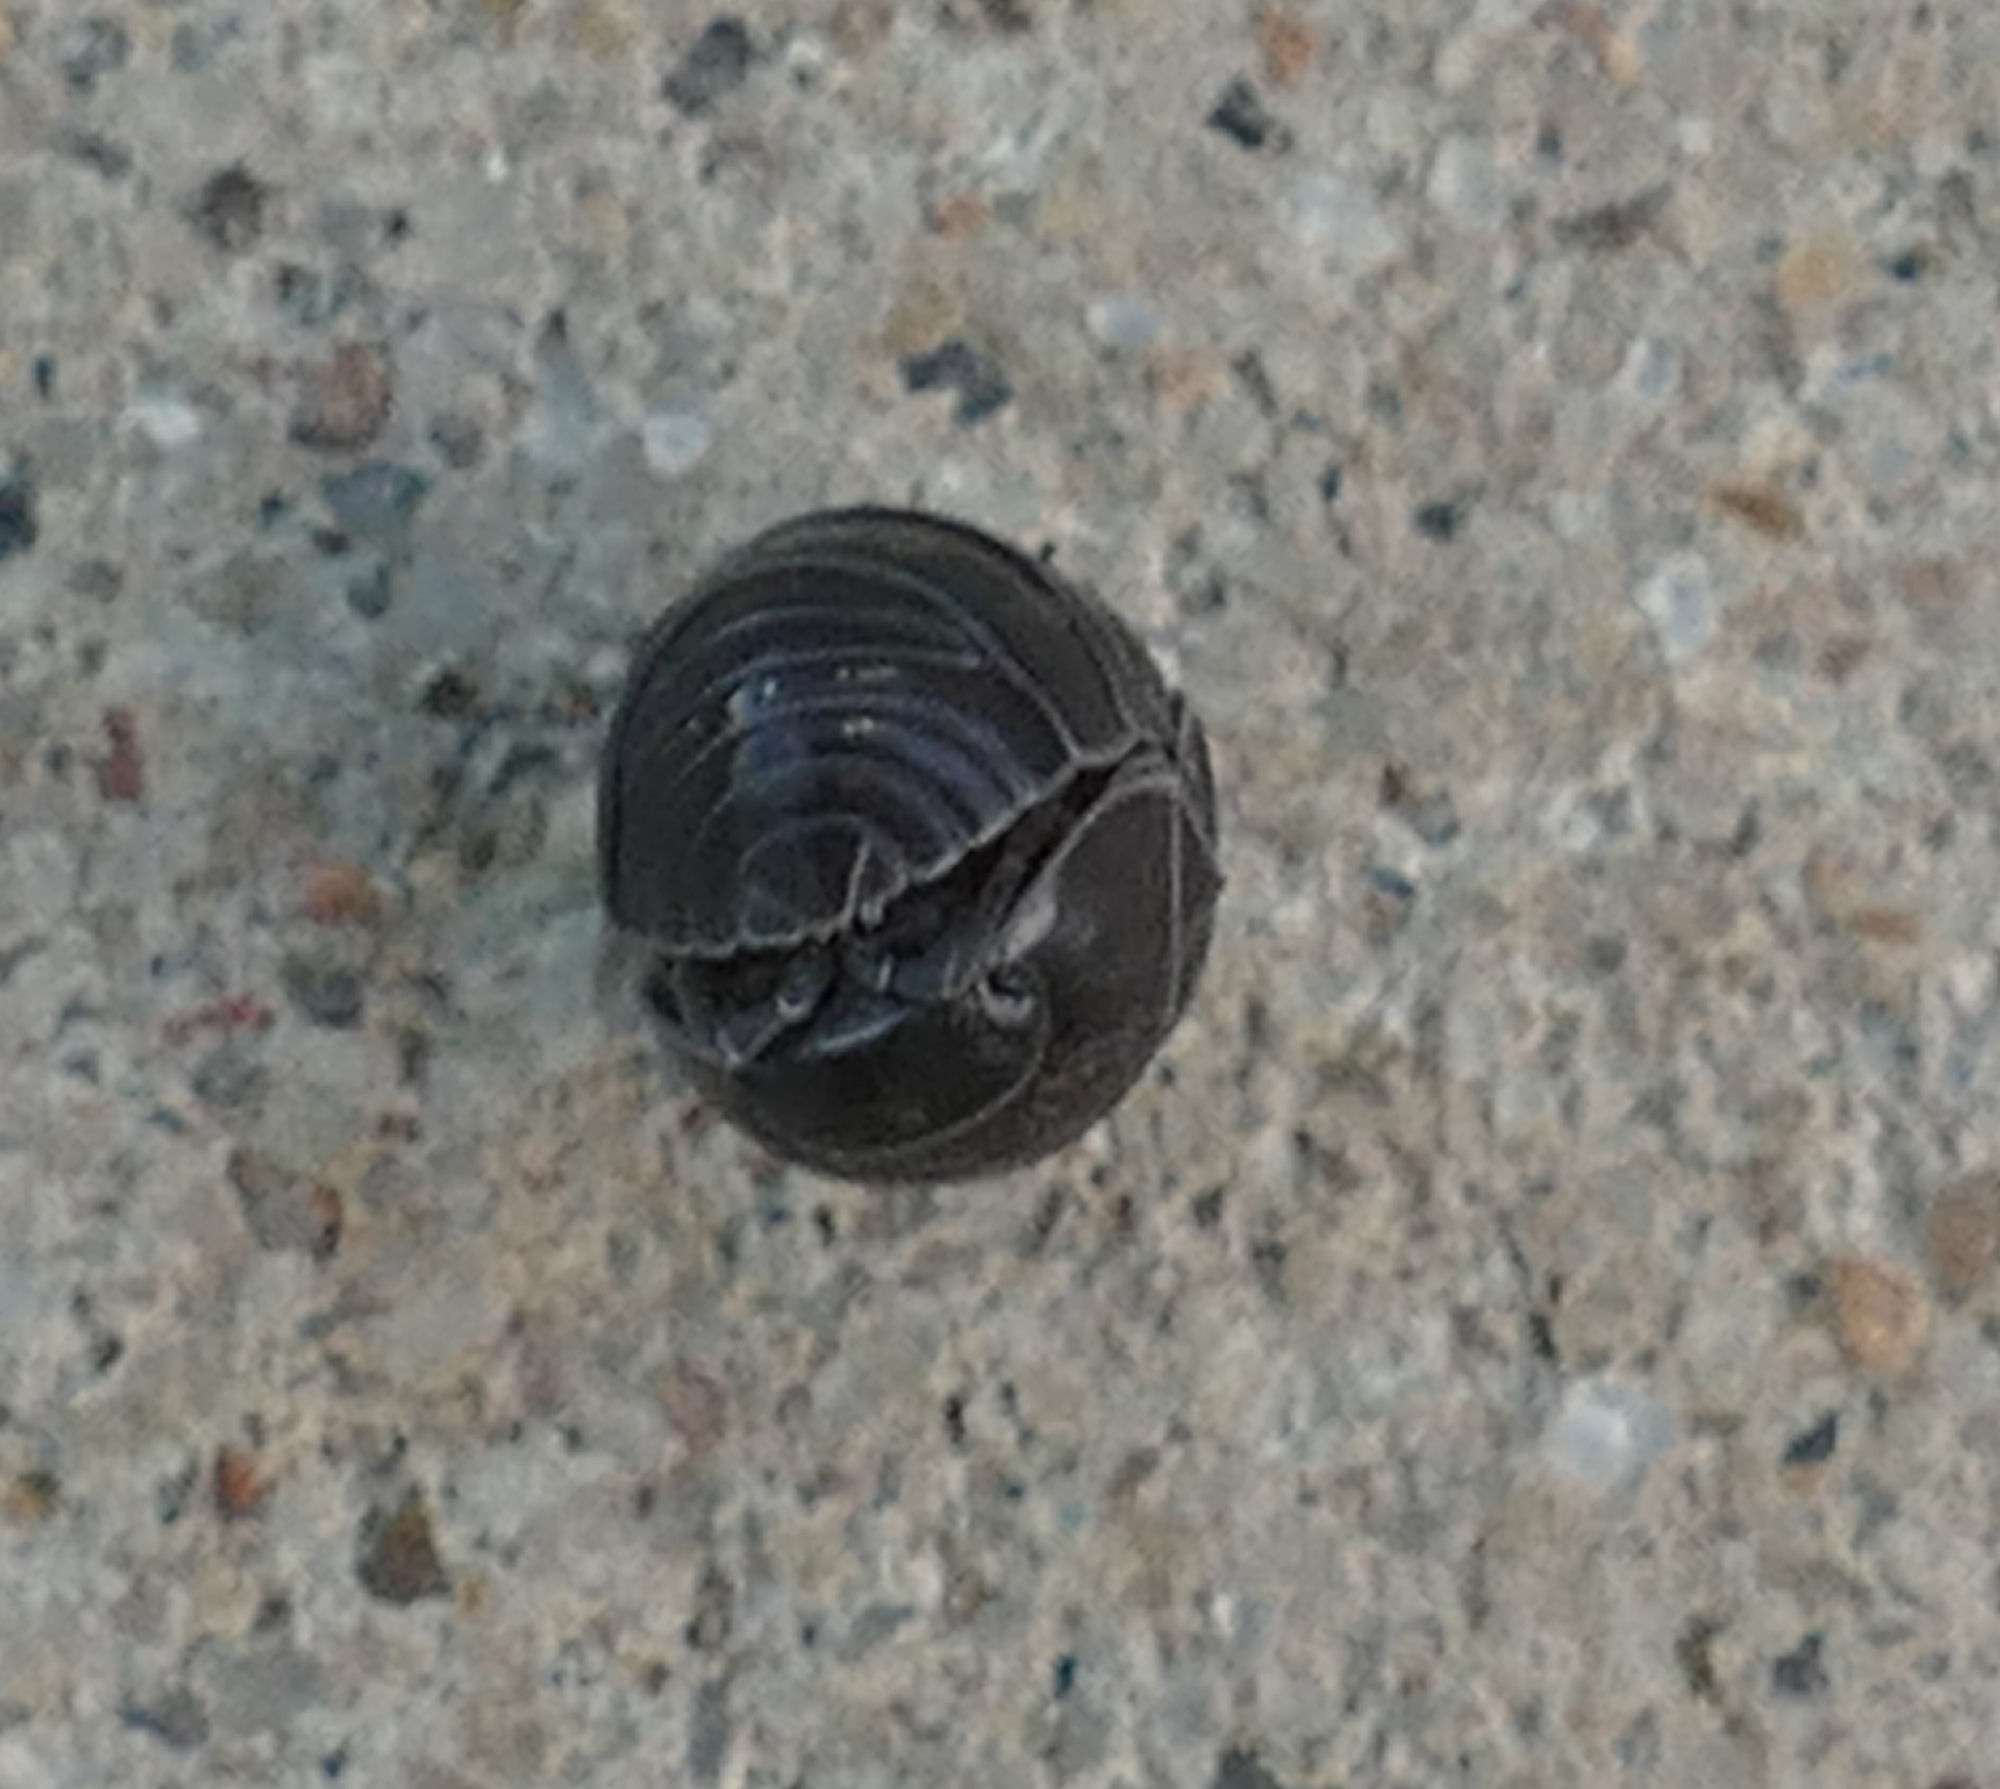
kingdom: Animalia
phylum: Arthropoda
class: Malacostraca
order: Isopoda
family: Armadillidiidae
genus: Armadillidium
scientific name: Armadillidium vulgare
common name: Common pill woodlouse
